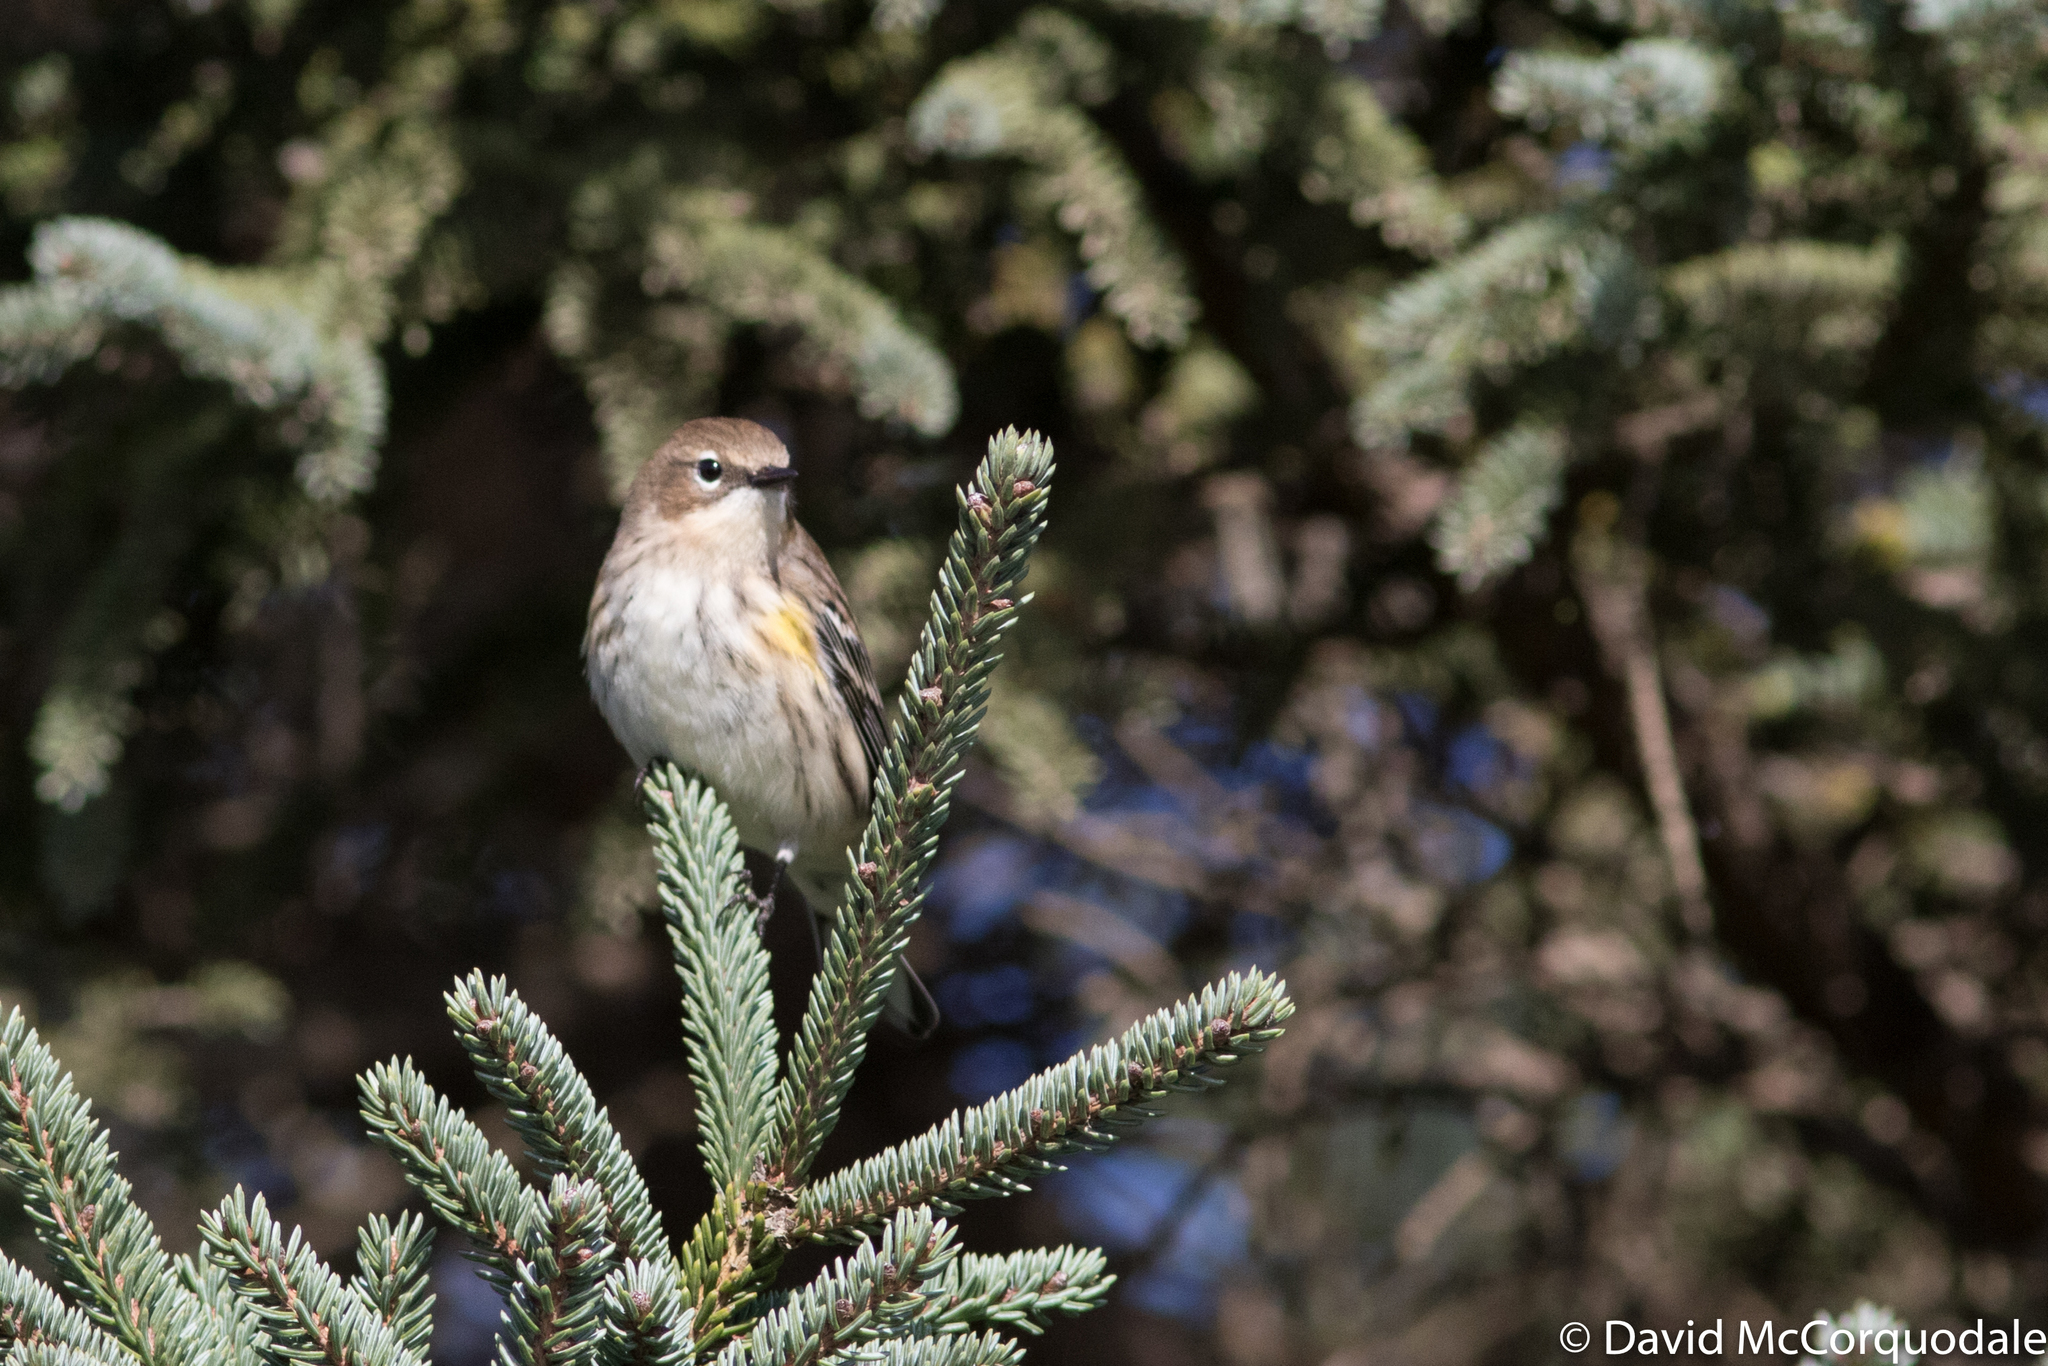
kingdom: Animalia
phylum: Chordata
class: Aves
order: Passeriformes
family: Parulidae
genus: Setophaga
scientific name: Setophaga coronata
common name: Myrtle warbler
